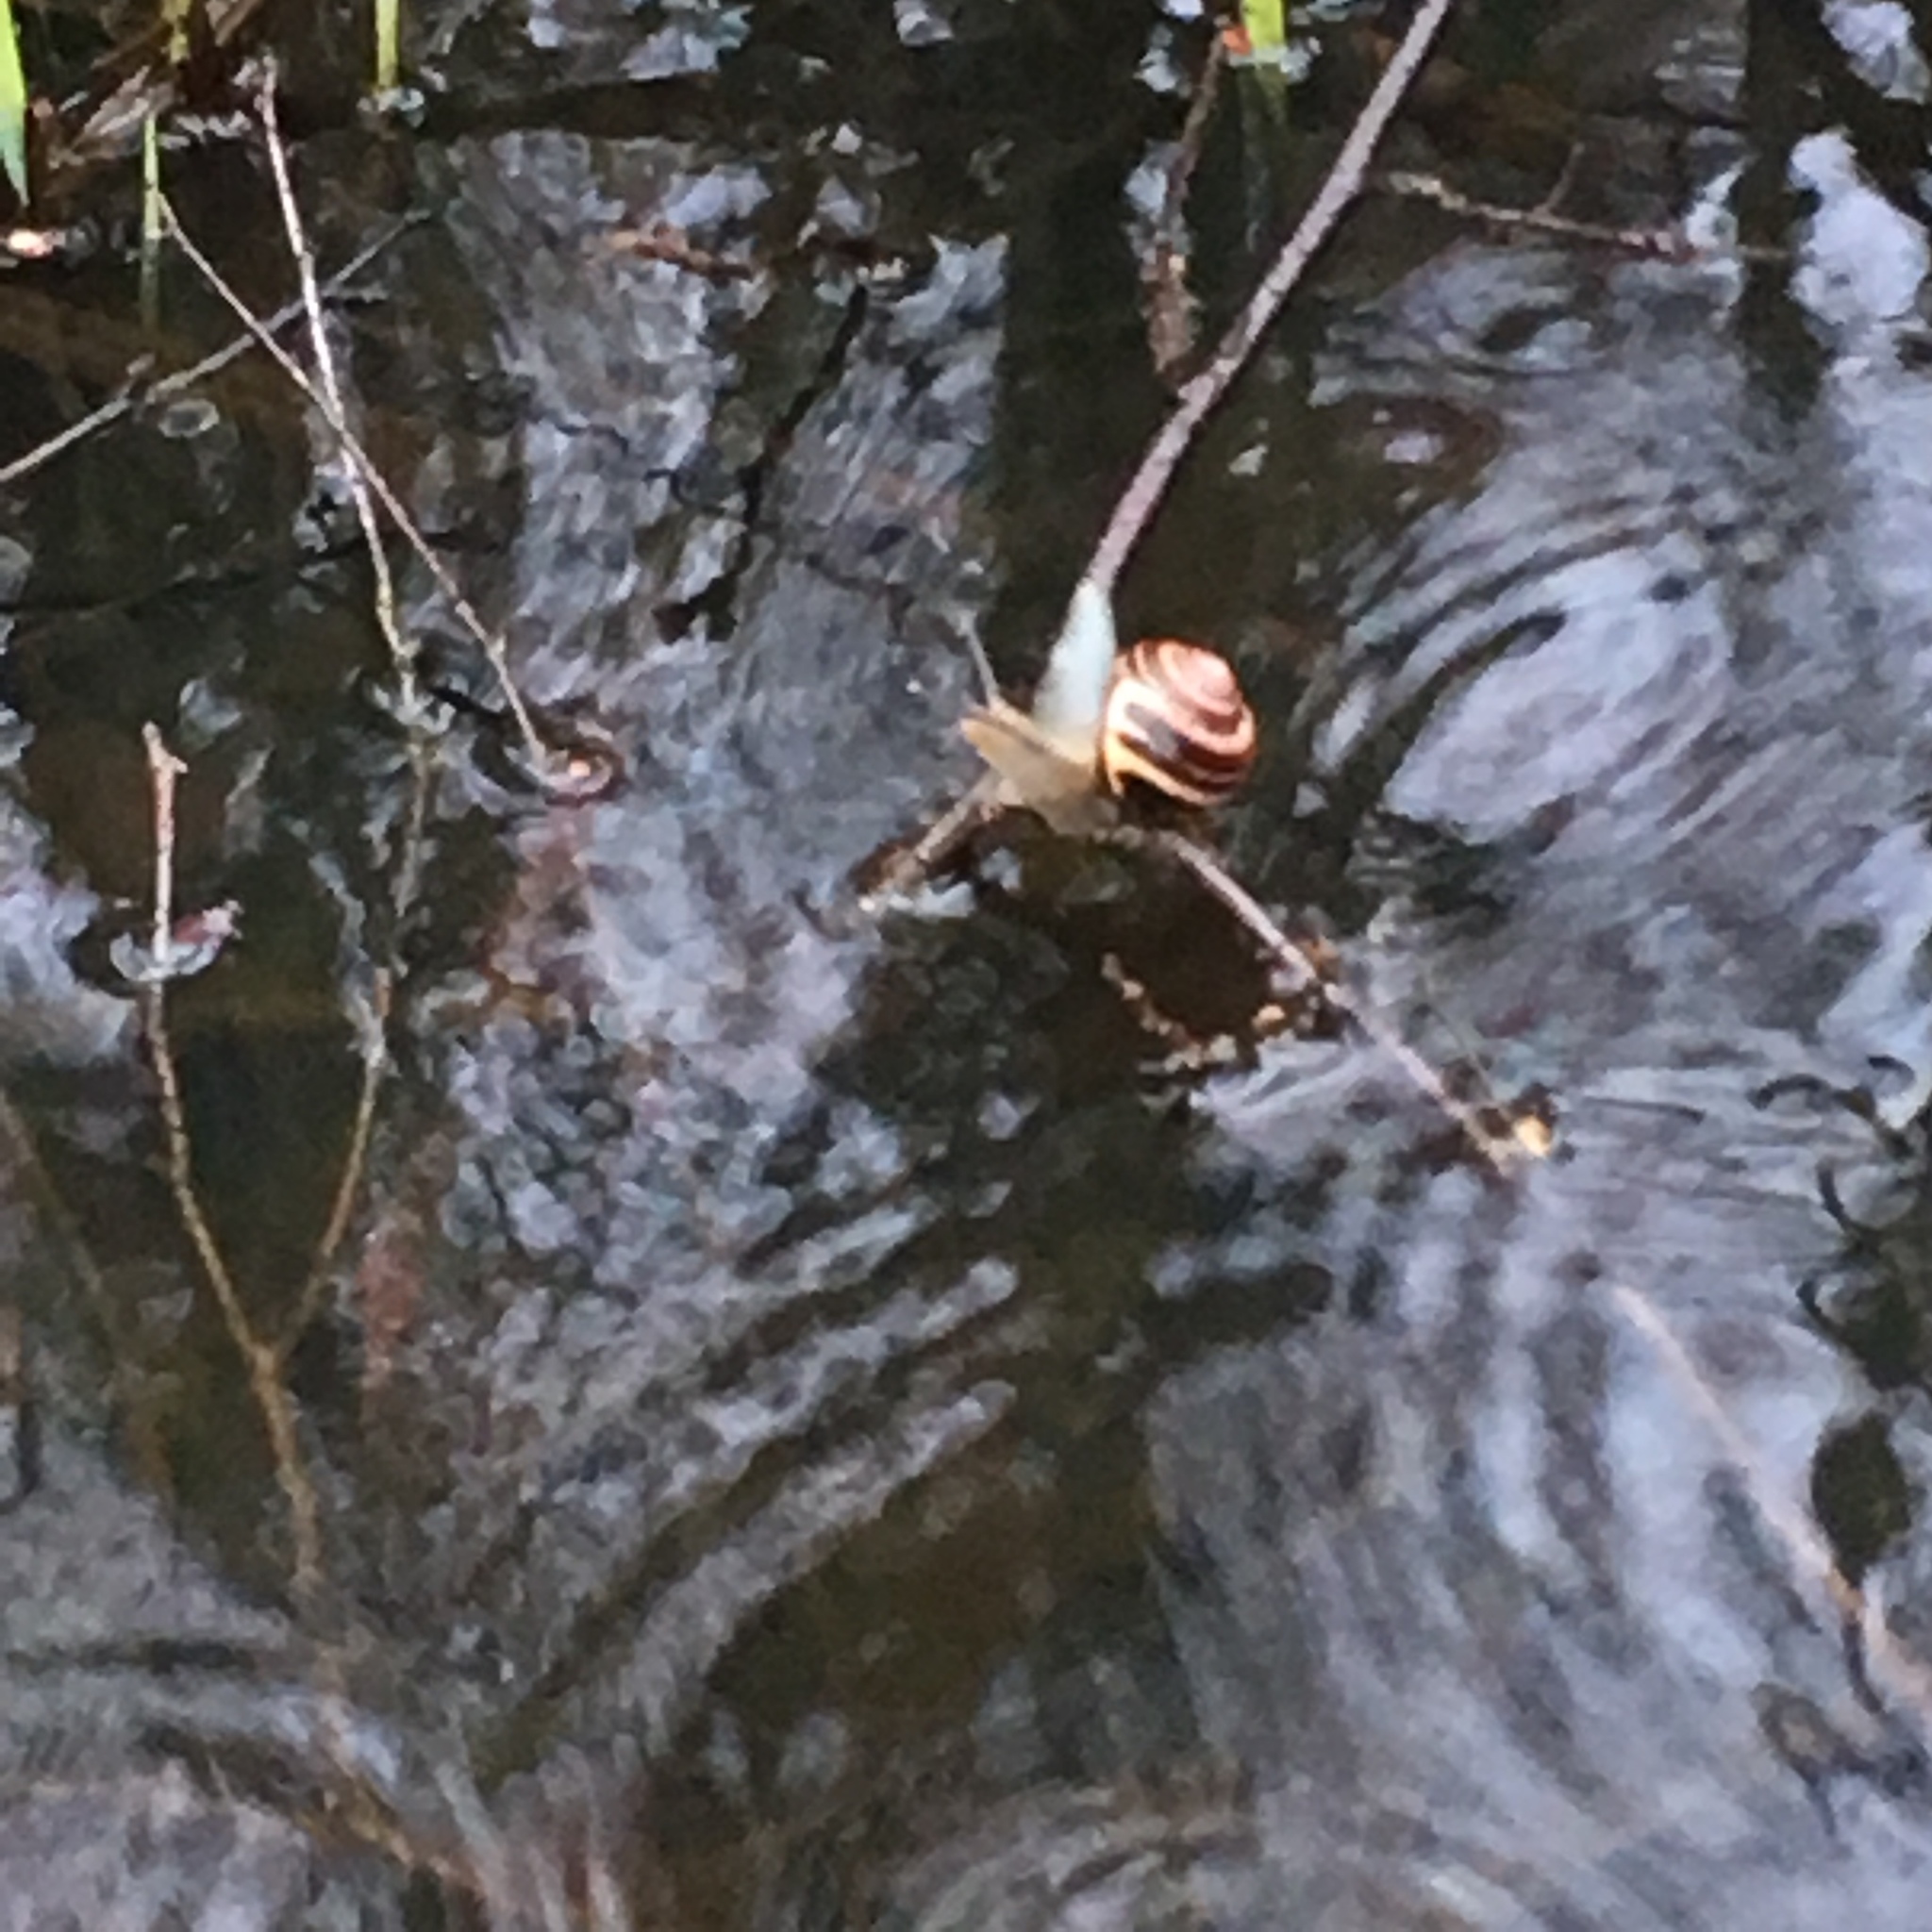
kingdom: Animalia
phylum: Mollusca
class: Gastropoda
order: Stylommatophora
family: Helicidae
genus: Cepaea
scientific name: Cepaea nemoralis
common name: Grovesnail
